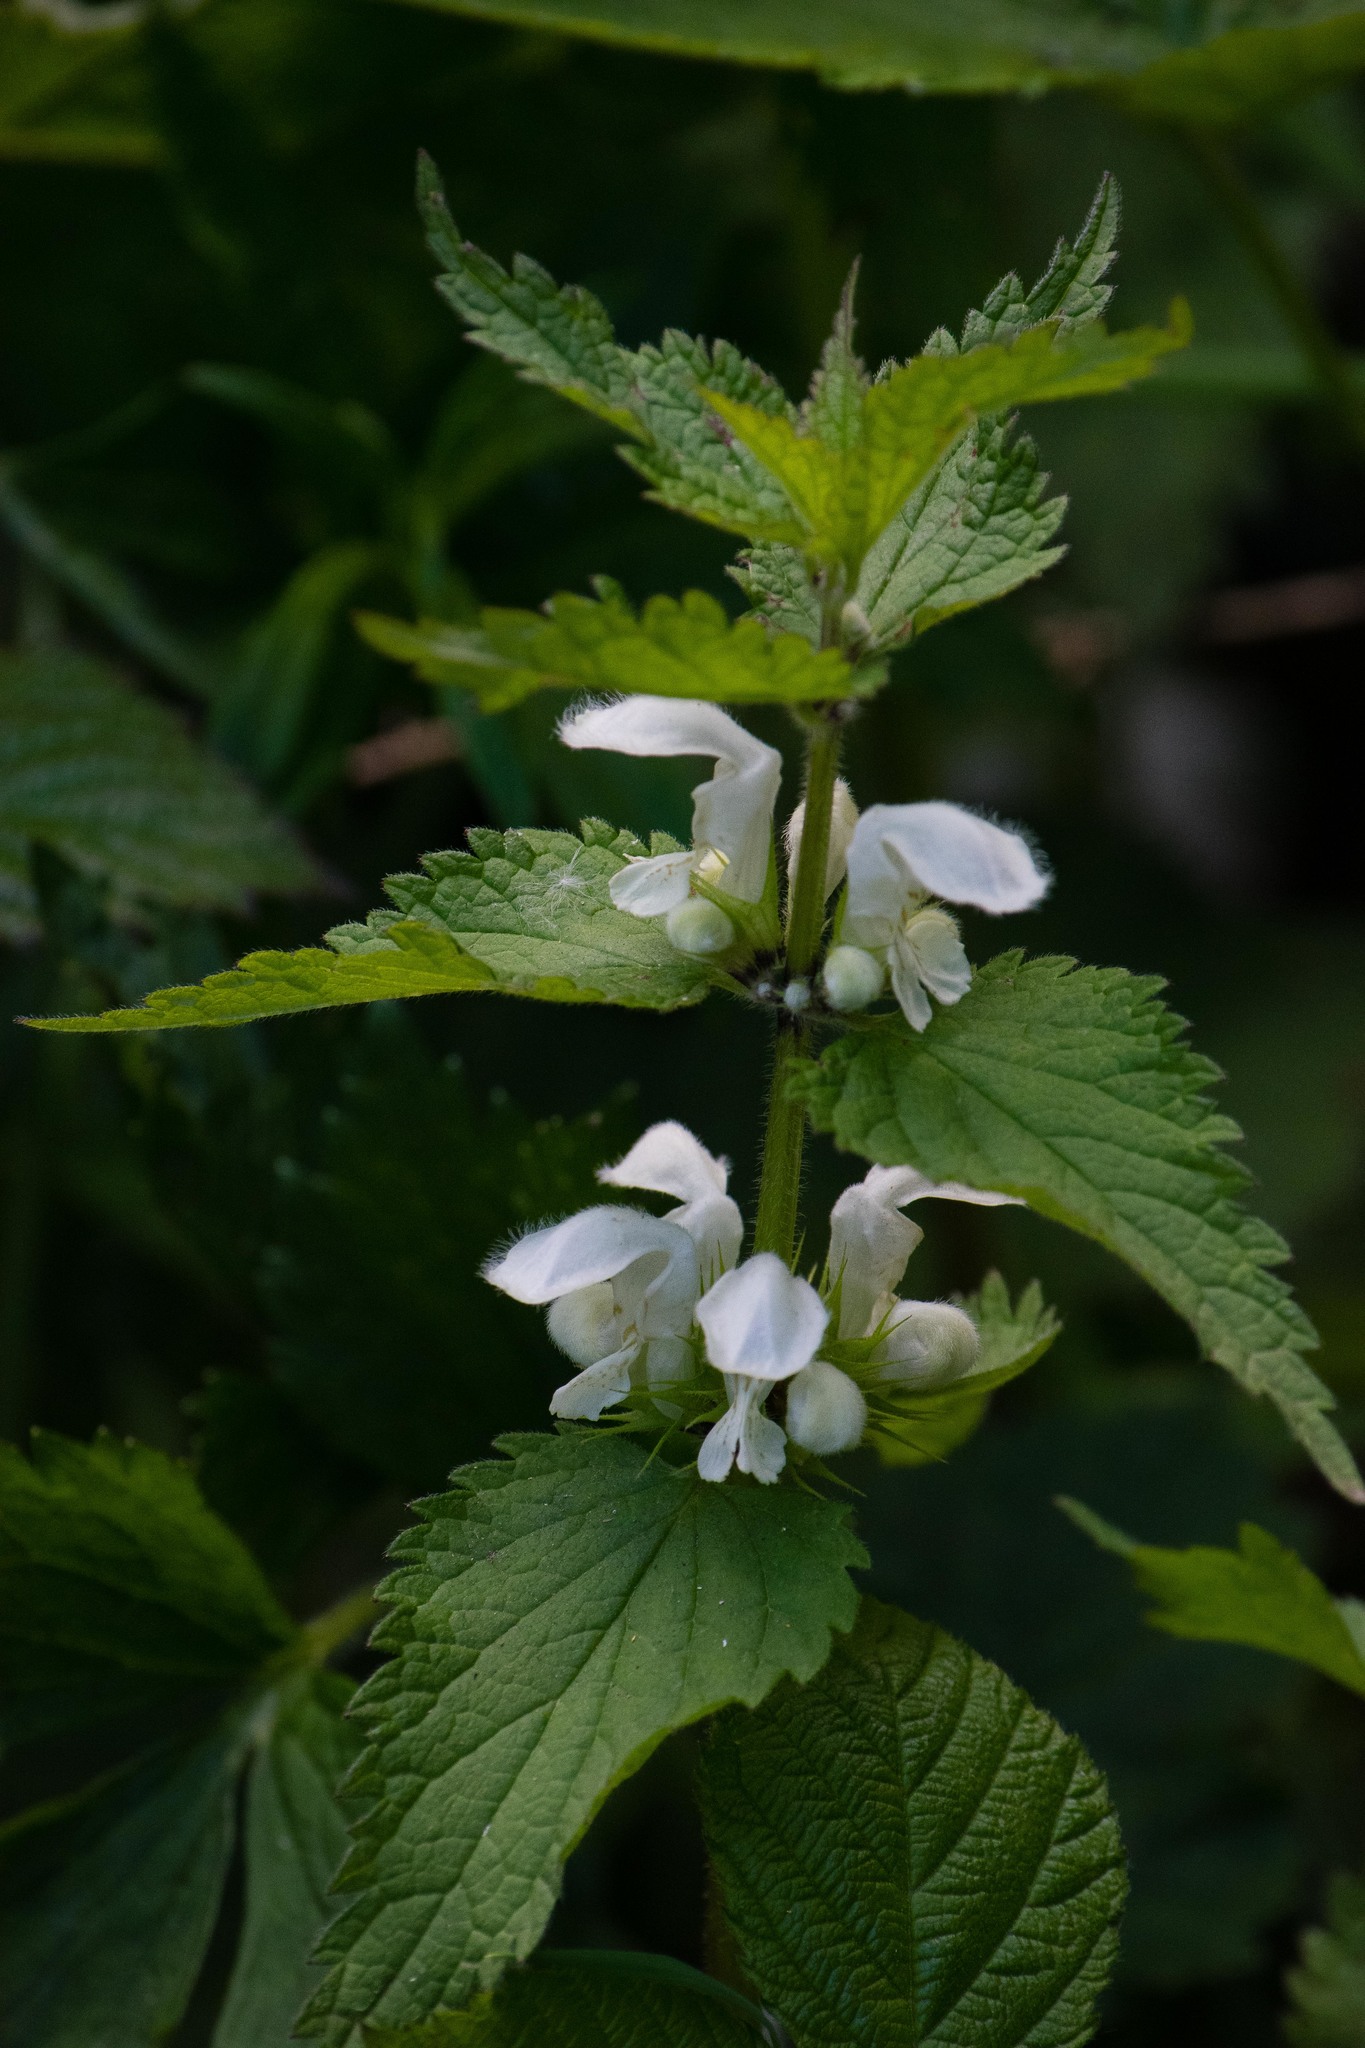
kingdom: Plantae
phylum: Tracheophyta
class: Magnoliopsida
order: Lamiales
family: Lamiaceae
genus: Lamium
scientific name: Lamium album
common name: White dead-nettle
